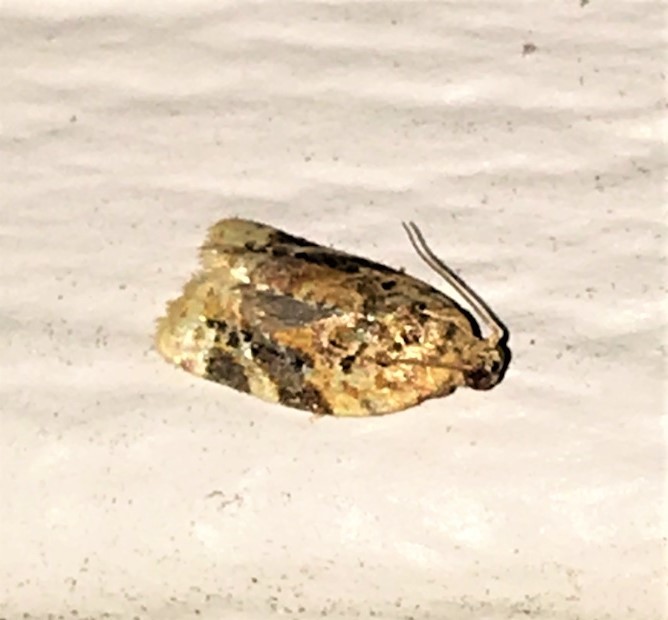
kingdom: Animalia
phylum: Arthropoda
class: Insecta
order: Lepidoptera
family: Tortricidae
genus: Argyrotaenia
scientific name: Argyrotaenia velutinana
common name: Red-banded leafroller moth
